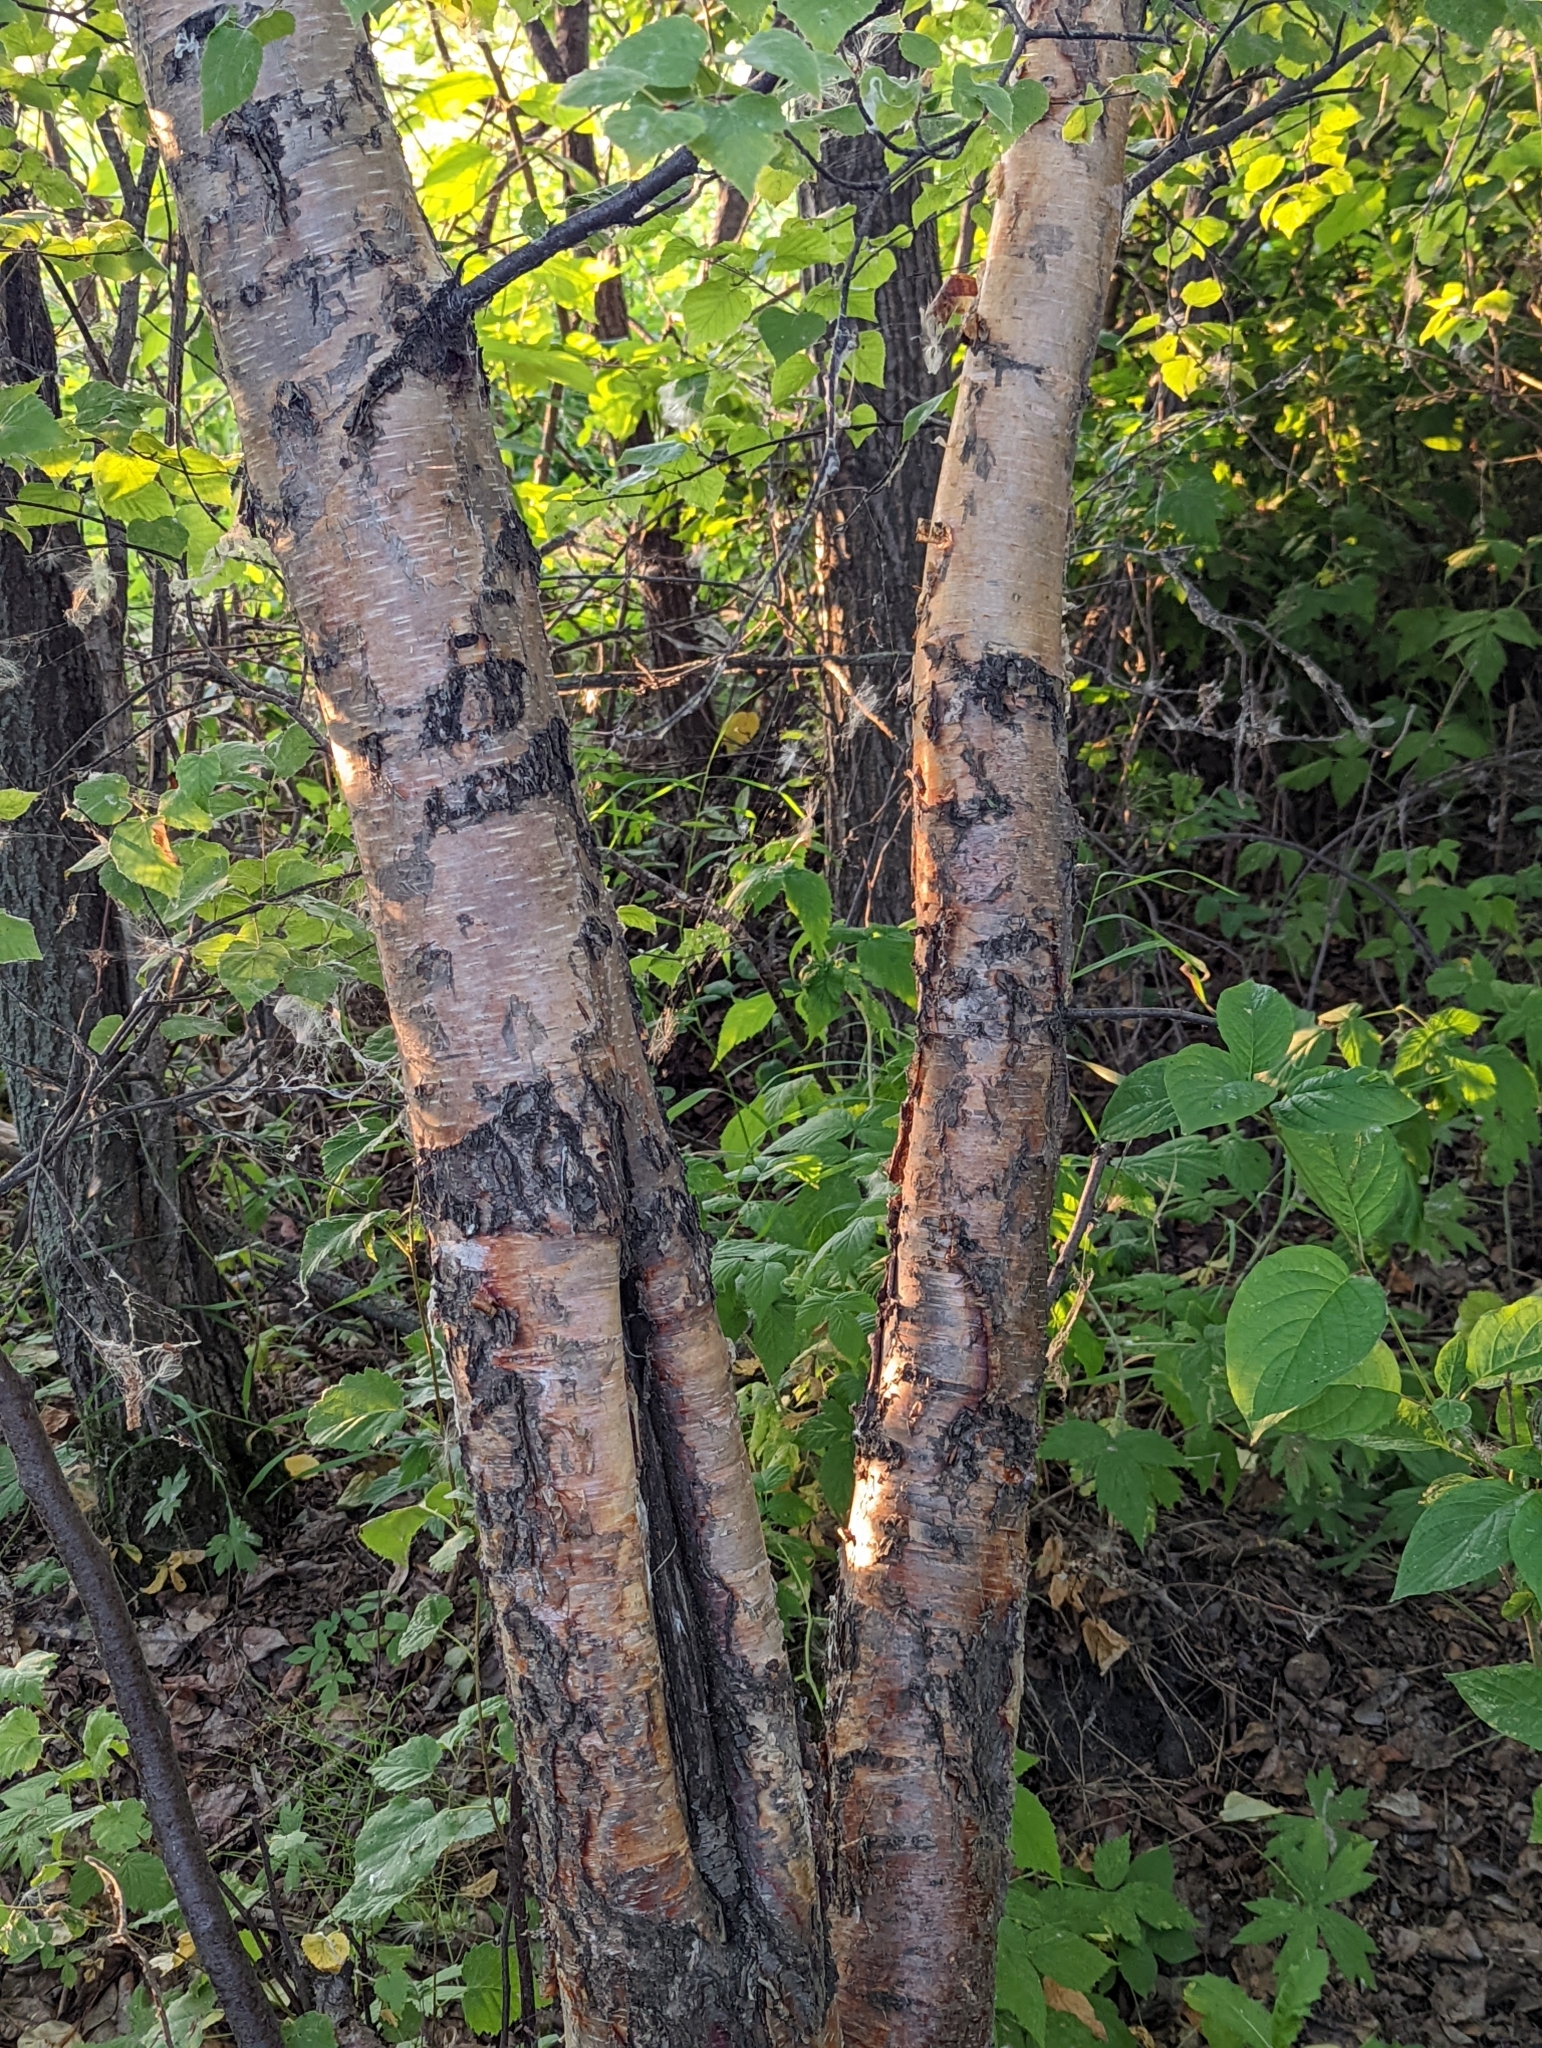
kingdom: Plantae
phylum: Tracheophyta
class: Magnoliopsida
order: Fagales
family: Betulaceae
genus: Betula
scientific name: Betula papyrifera
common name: Paper birch
